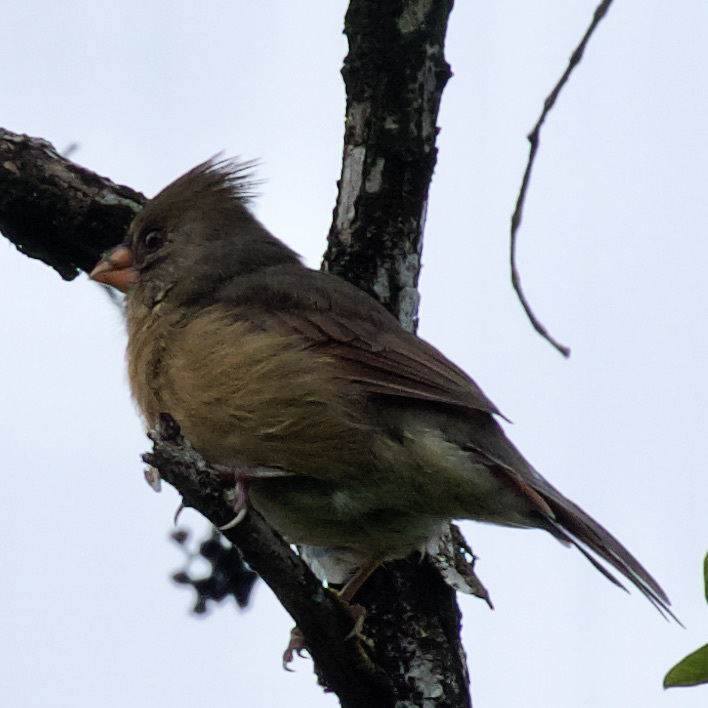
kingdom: Animalia
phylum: Chordata
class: Aves
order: Passeriformes
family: Cardinalidae
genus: Cardinalis
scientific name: Cardinalis cardinalis
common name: Northern cardinal
